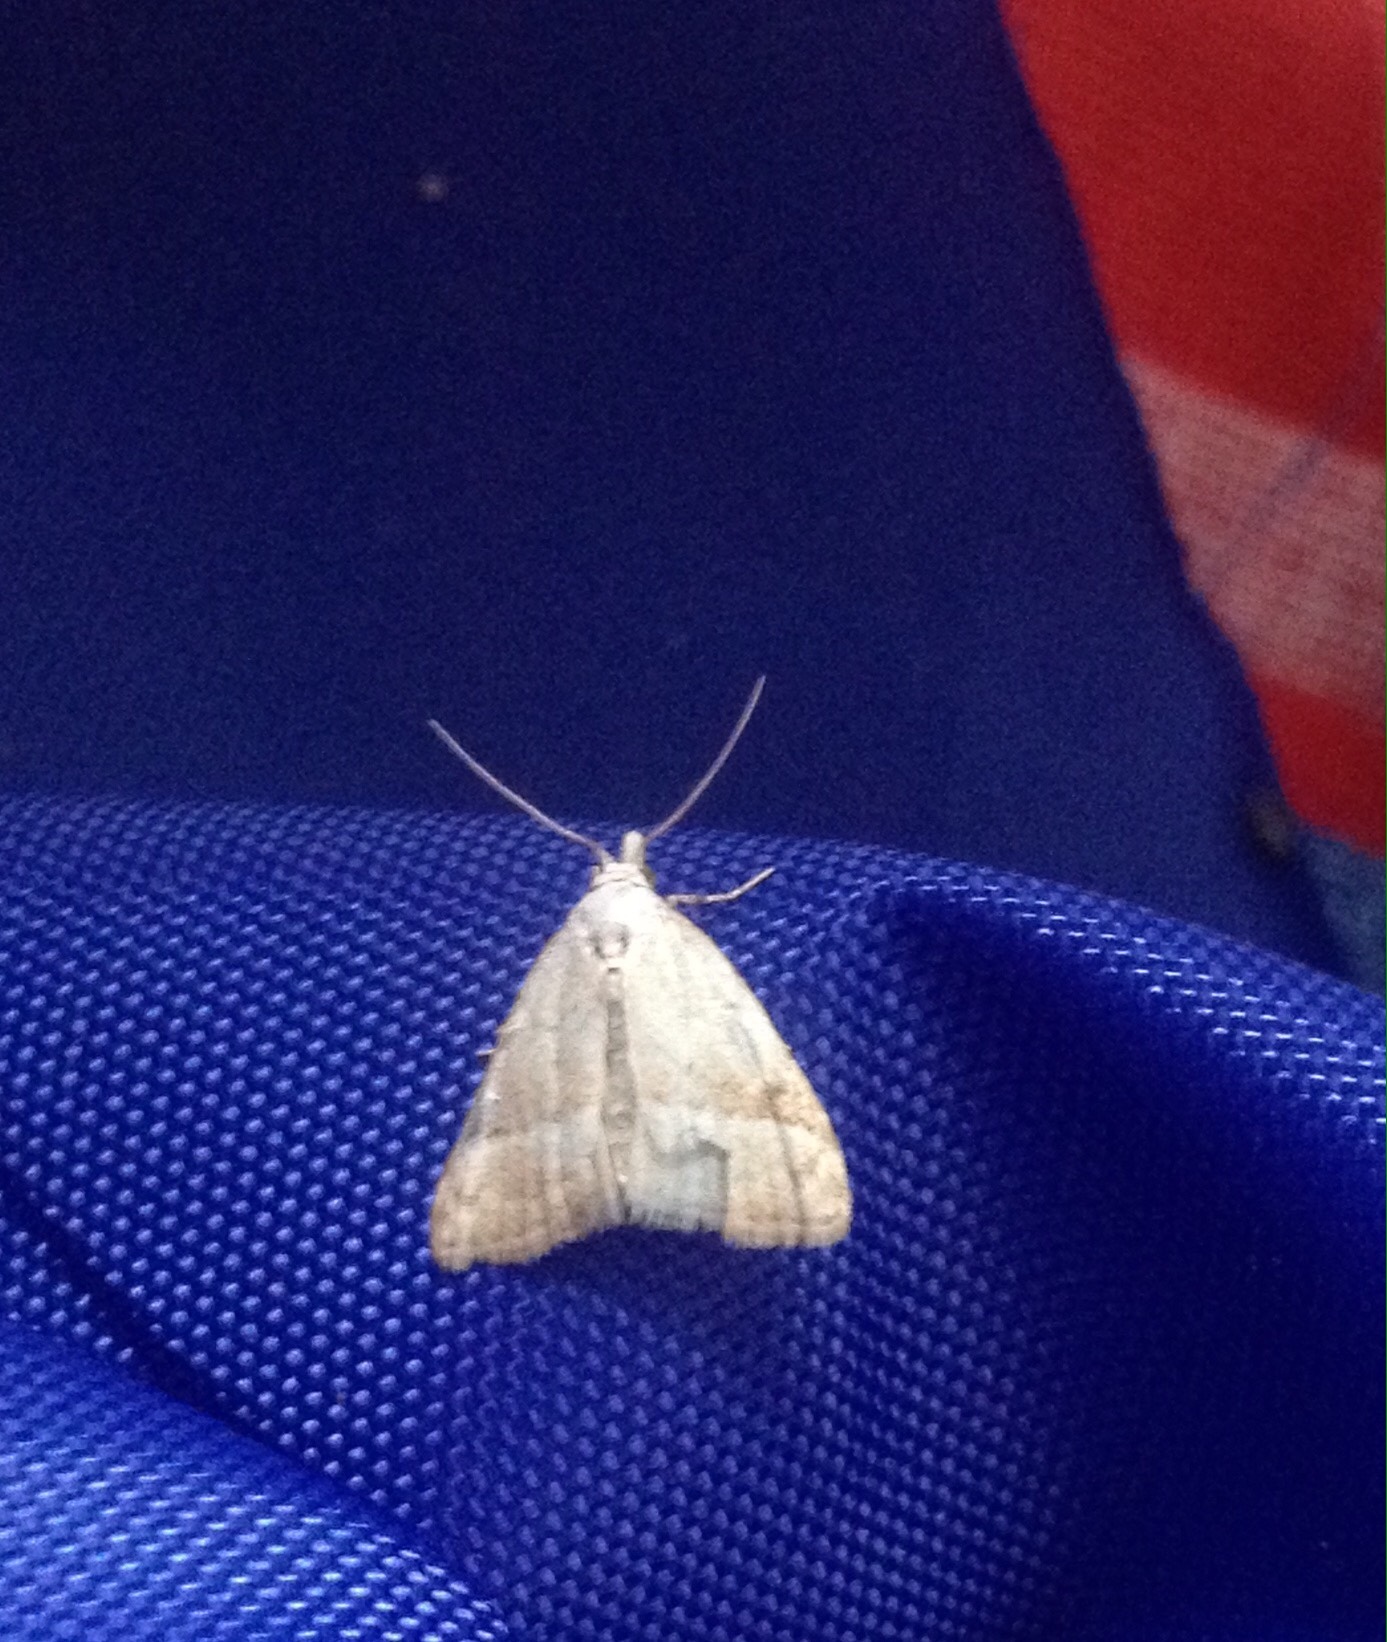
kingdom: Animalia
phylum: Arthropoda
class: Insecta
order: Lepidoptera
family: Nolidae
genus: Nola
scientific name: Nola aerugula
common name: Scarce black arches
